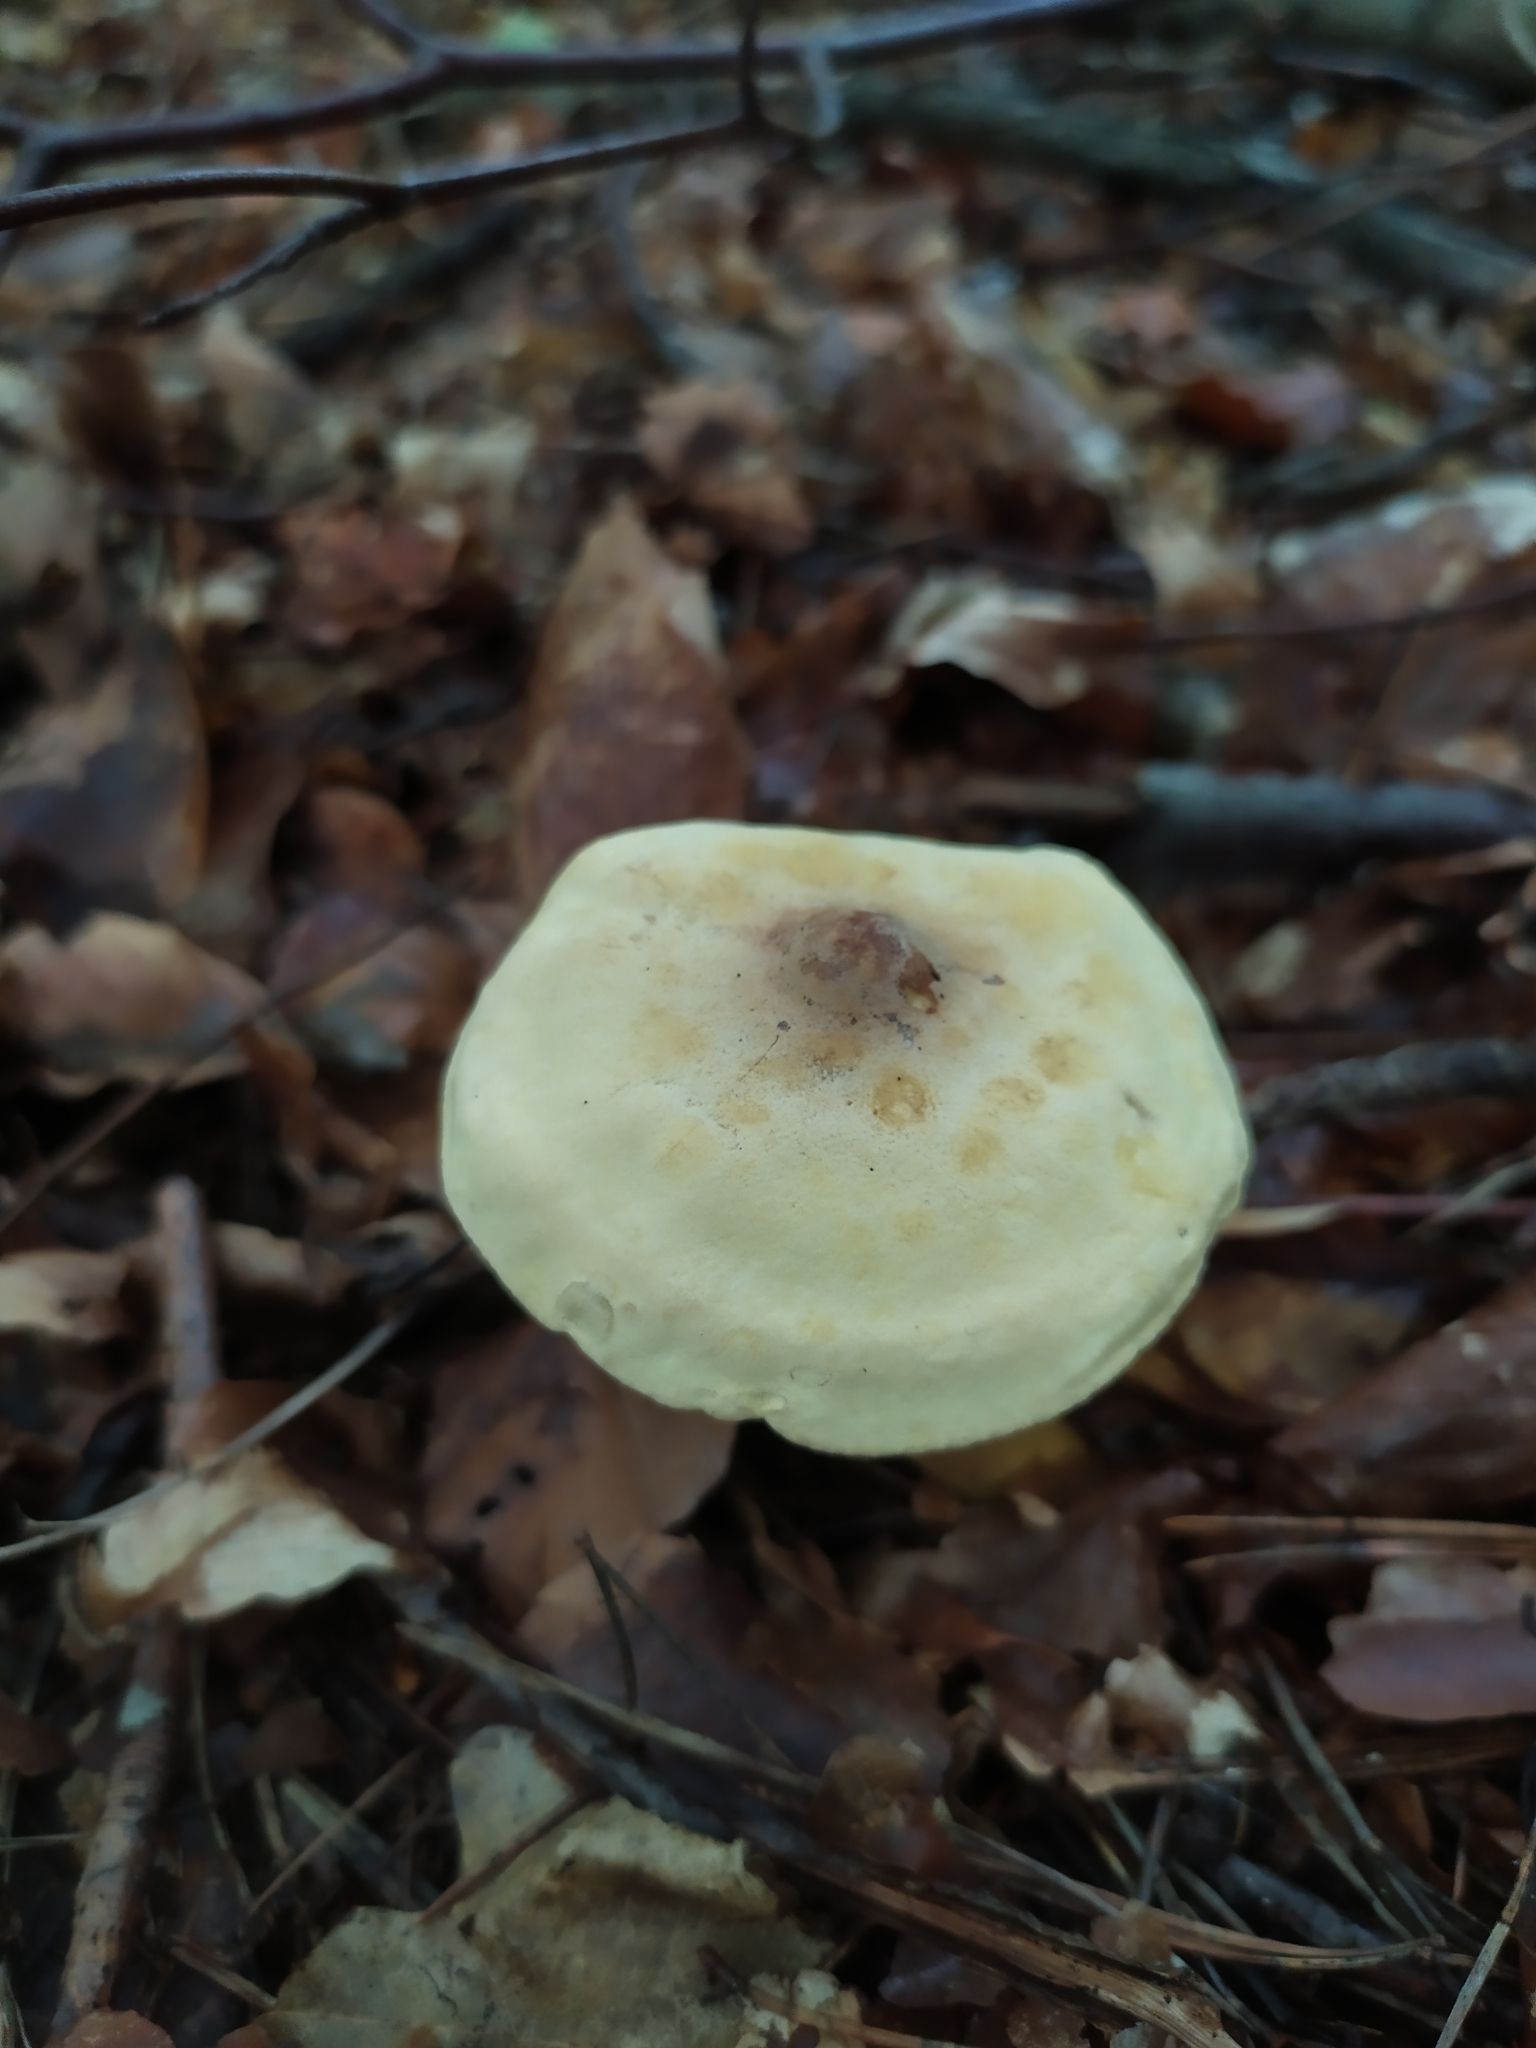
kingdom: Fungi
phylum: Basidiomycota
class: Agaricomycetes
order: Agaricales
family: Tricholomataceae
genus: Tricholoma
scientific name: Tricholoma sulphureum
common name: Stinky knight
